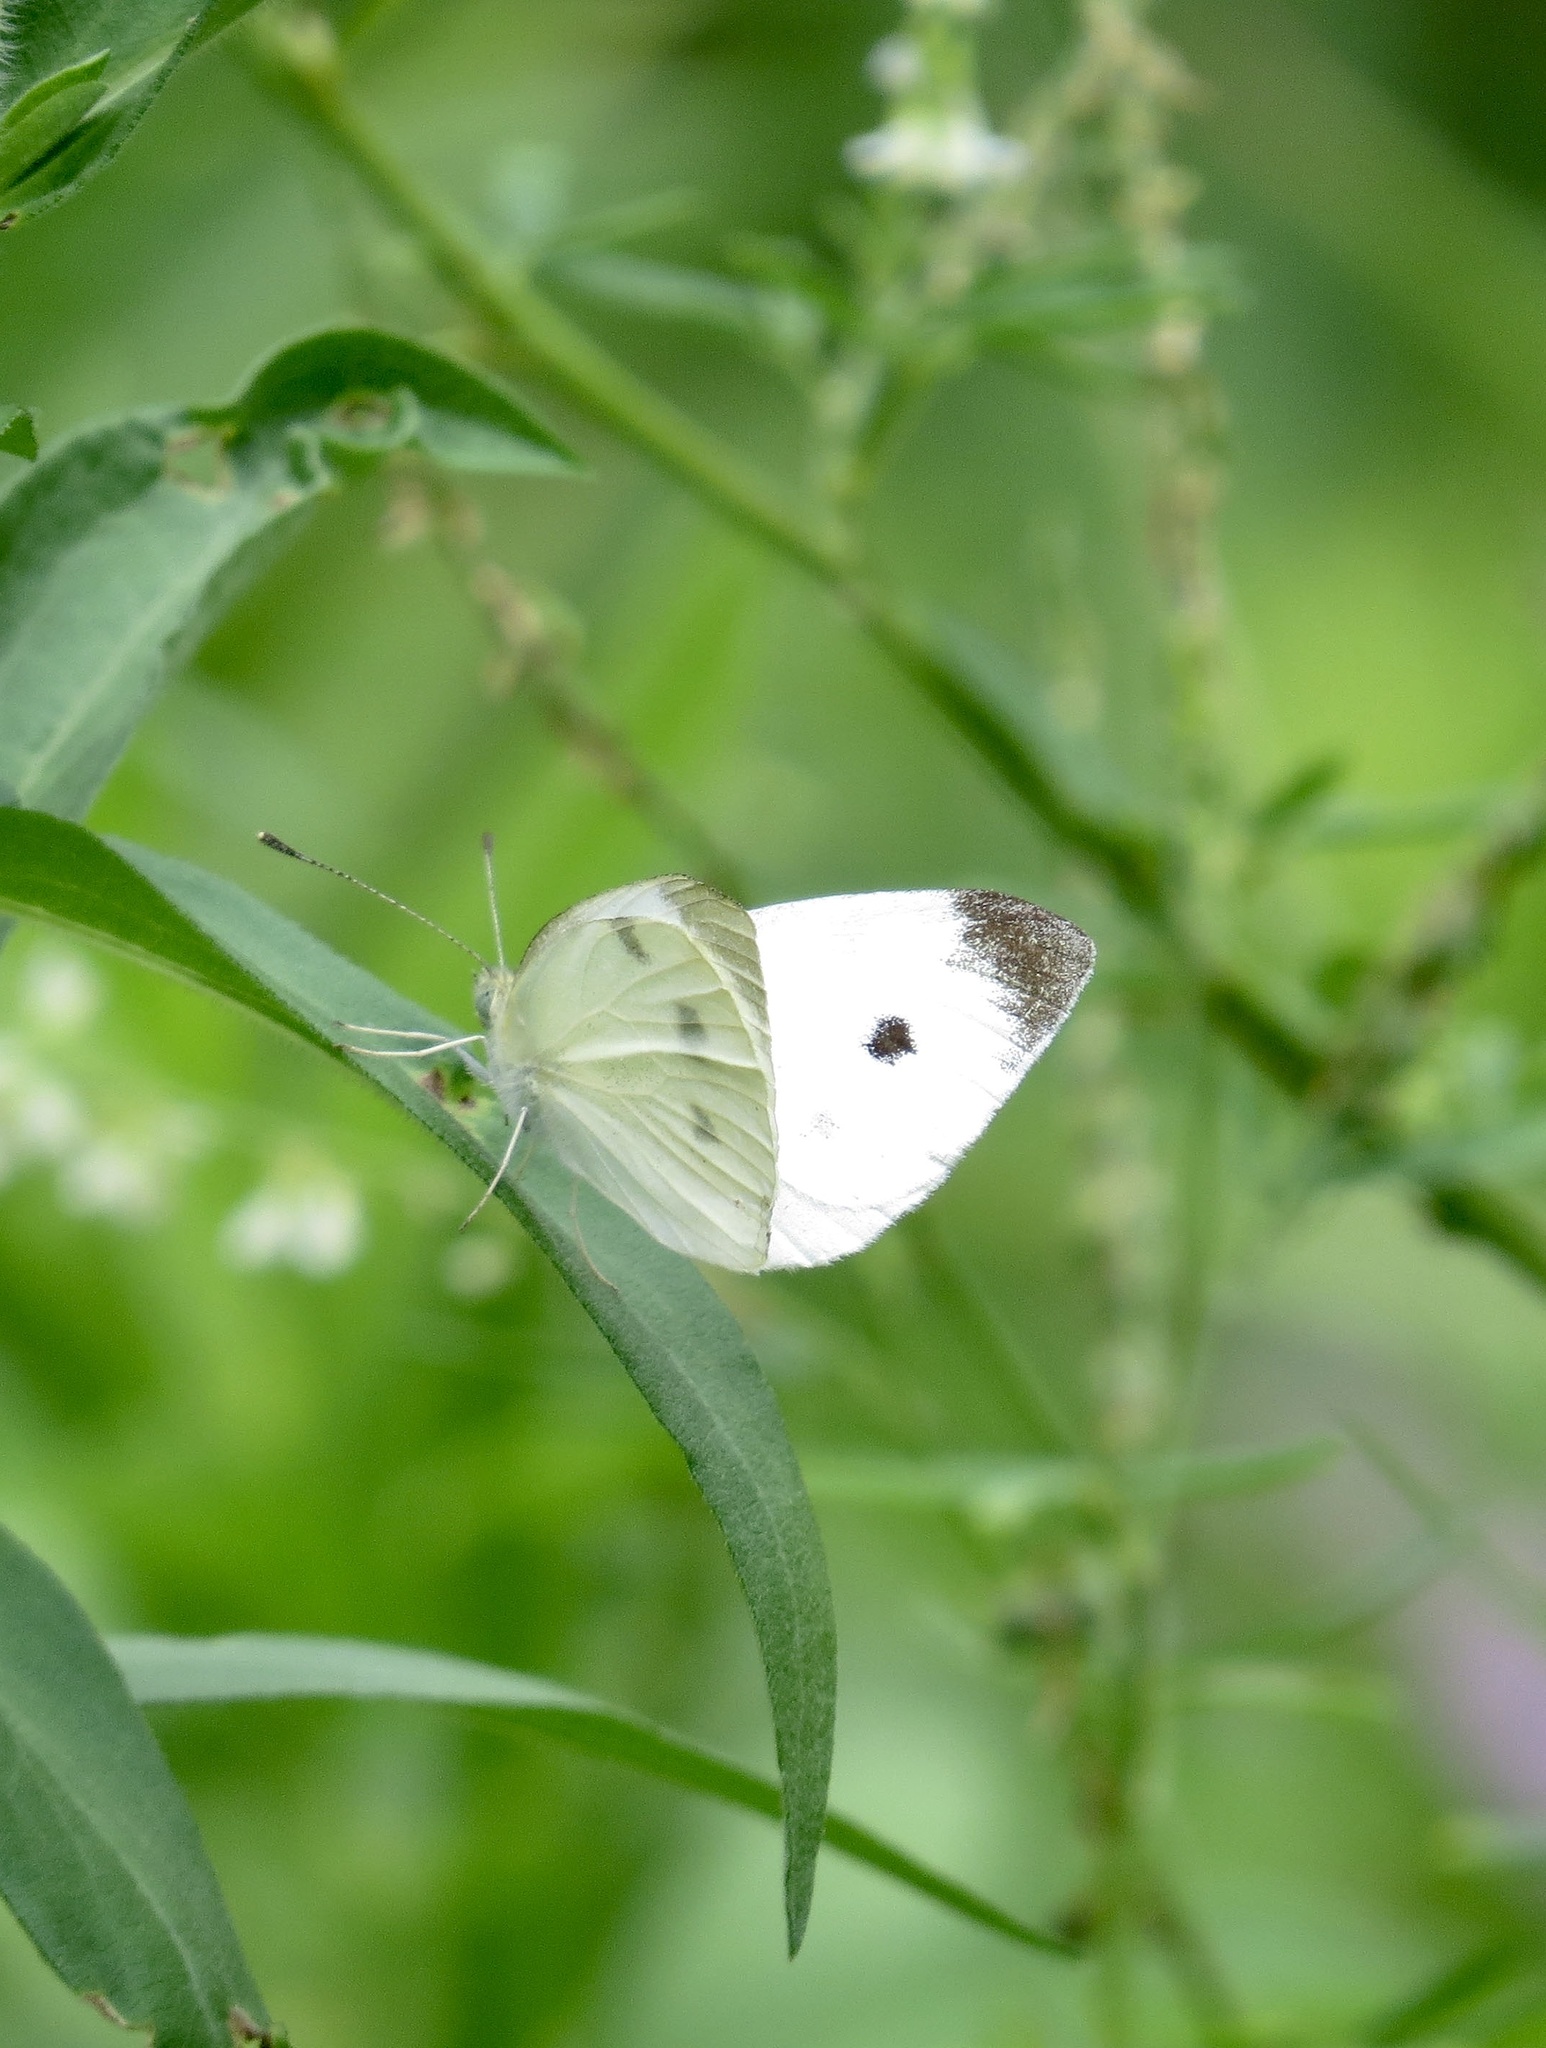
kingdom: Animalia
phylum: Arthropoda
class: Insecta
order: Lepidoptera
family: Pieridae
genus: Pieris
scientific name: Pieris rapae
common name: Small white
